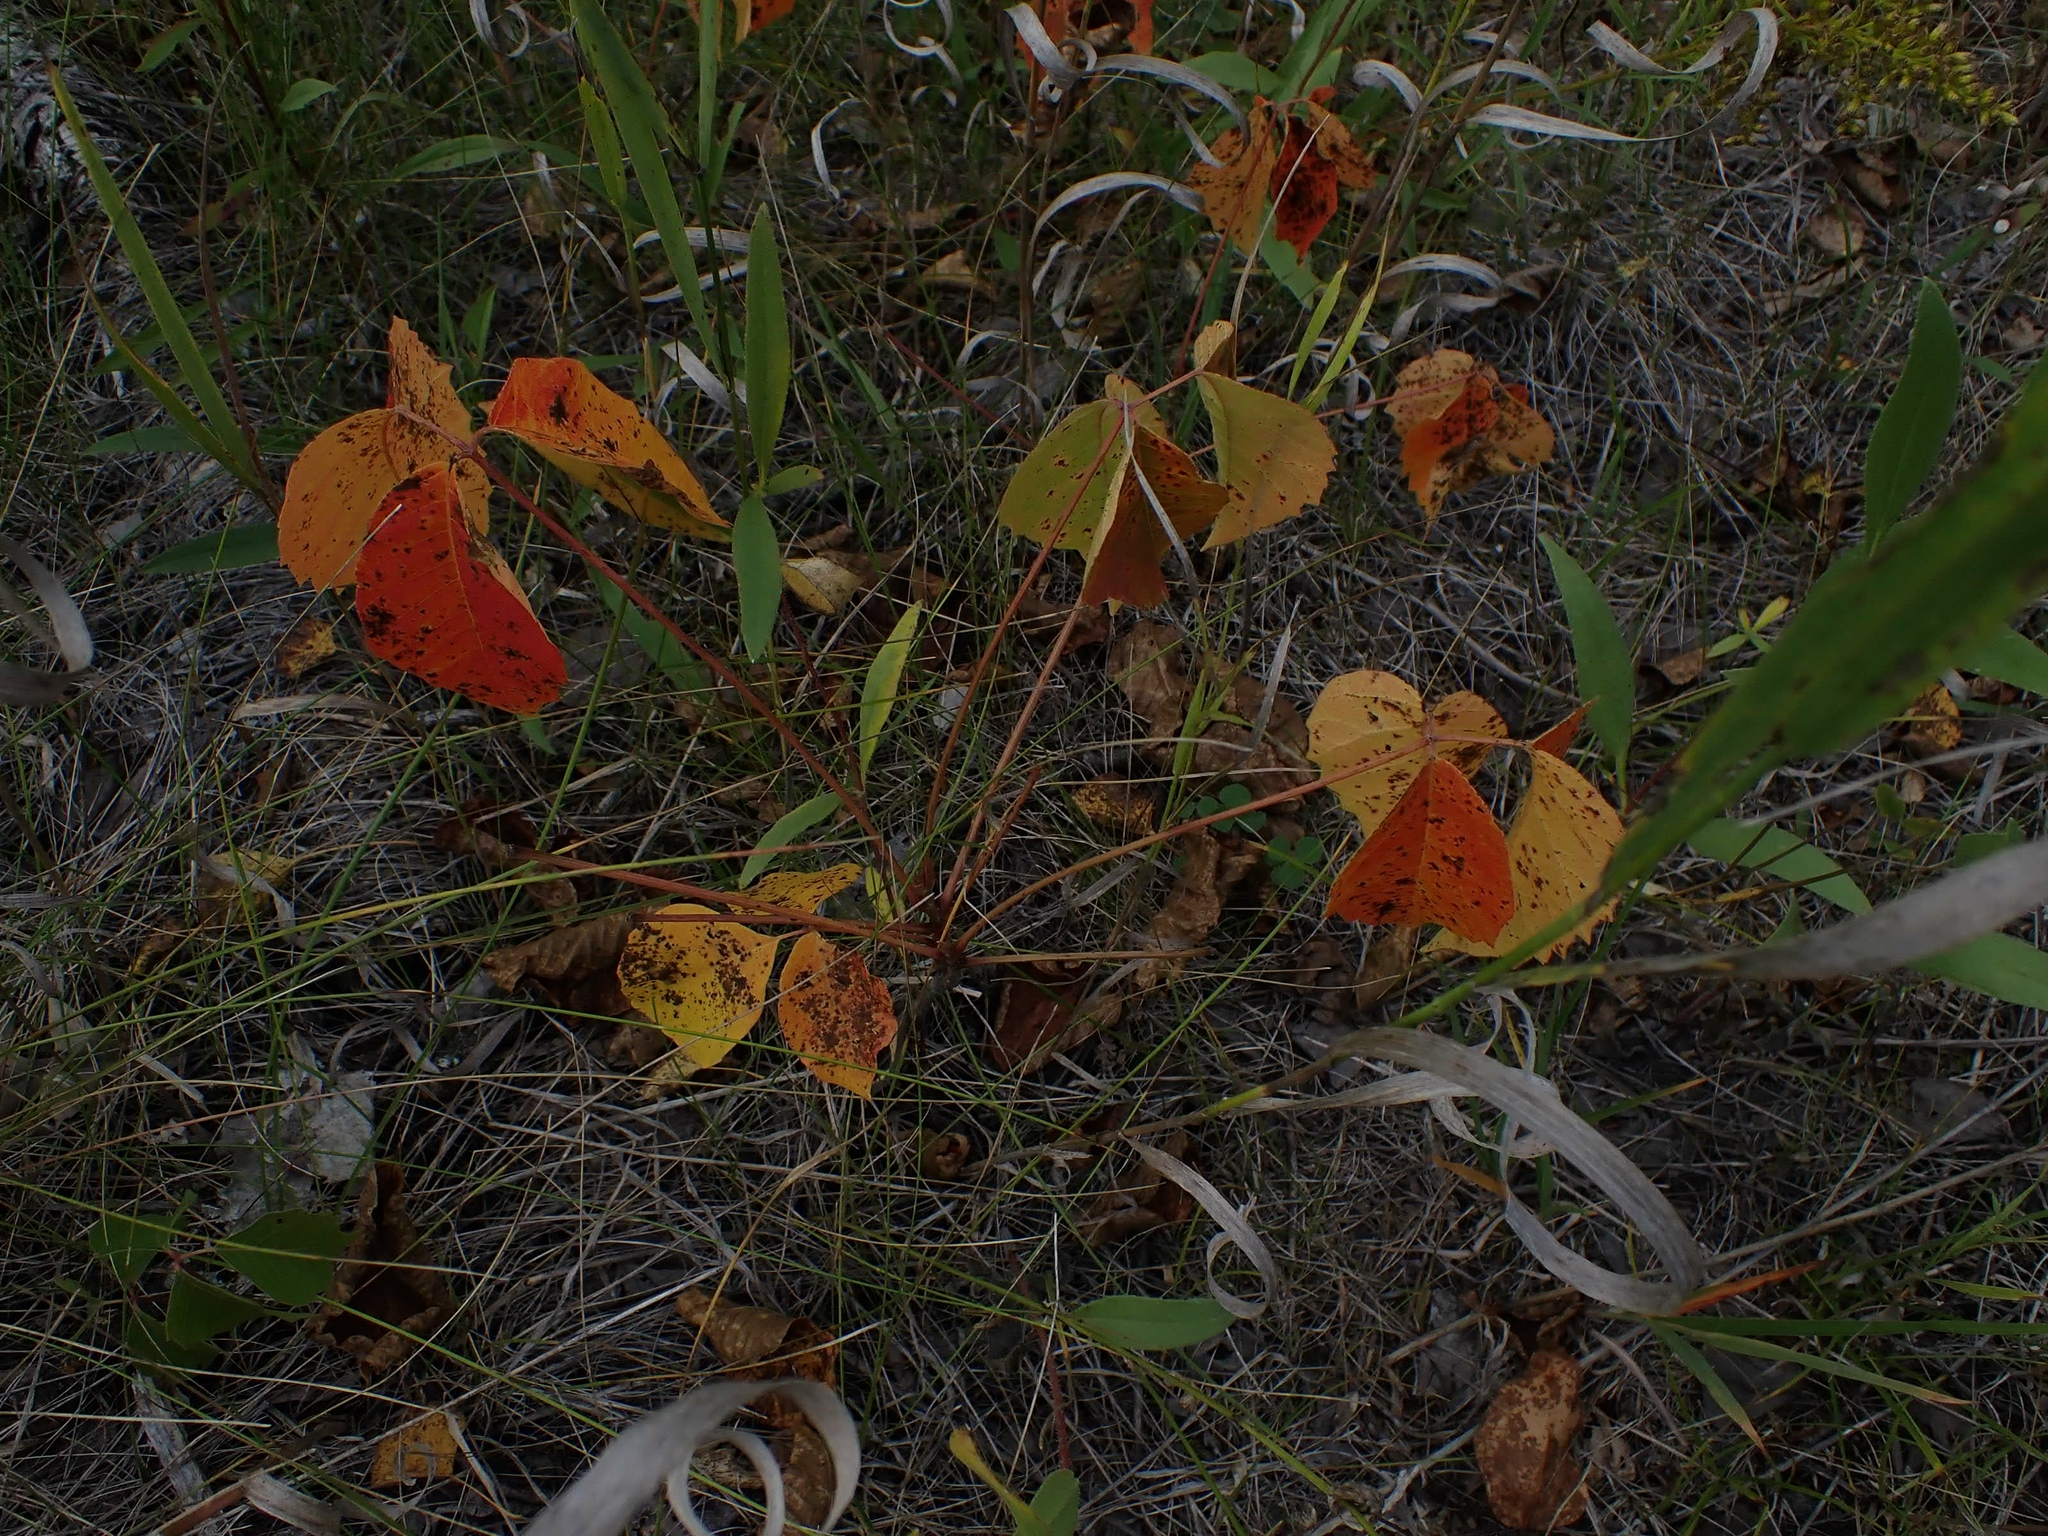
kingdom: Plantae
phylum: Tracheophyta
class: Magnoliopsida
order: Sapindales
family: Anacardiaceae
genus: Toxicodendron
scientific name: Toxicodendron rydbergii
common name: Rydberg's poison-ivy
